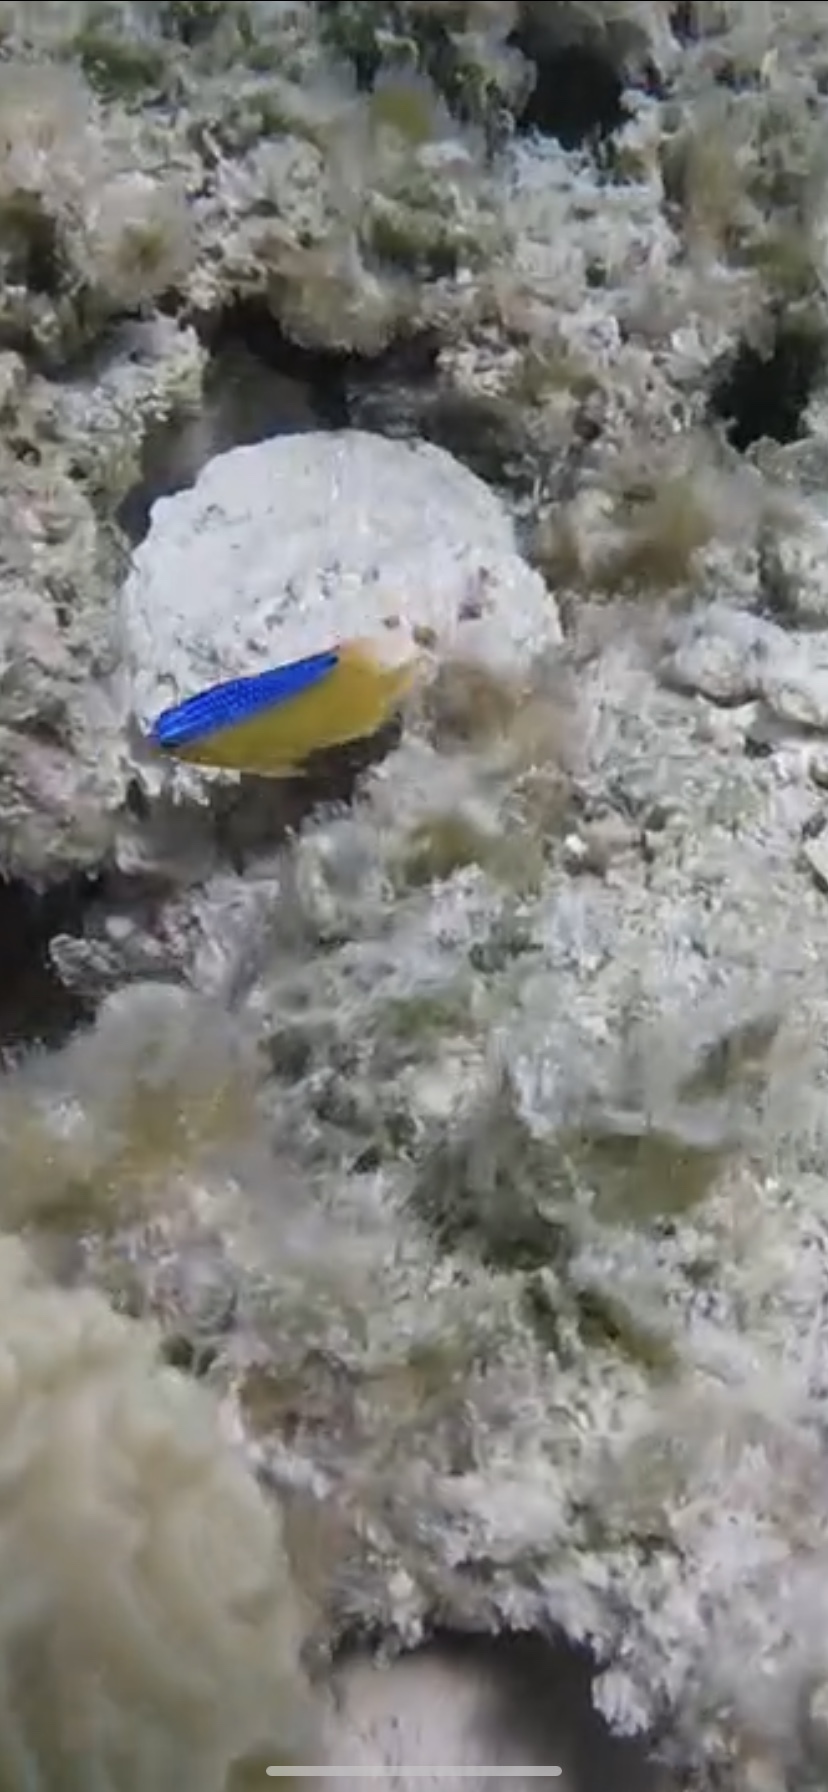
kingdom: Animalia
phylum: Chordata
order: Perciformes
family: Pomacentridae
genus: Stegastes
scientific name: Stegastes leucostictus
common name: Beaugregory
